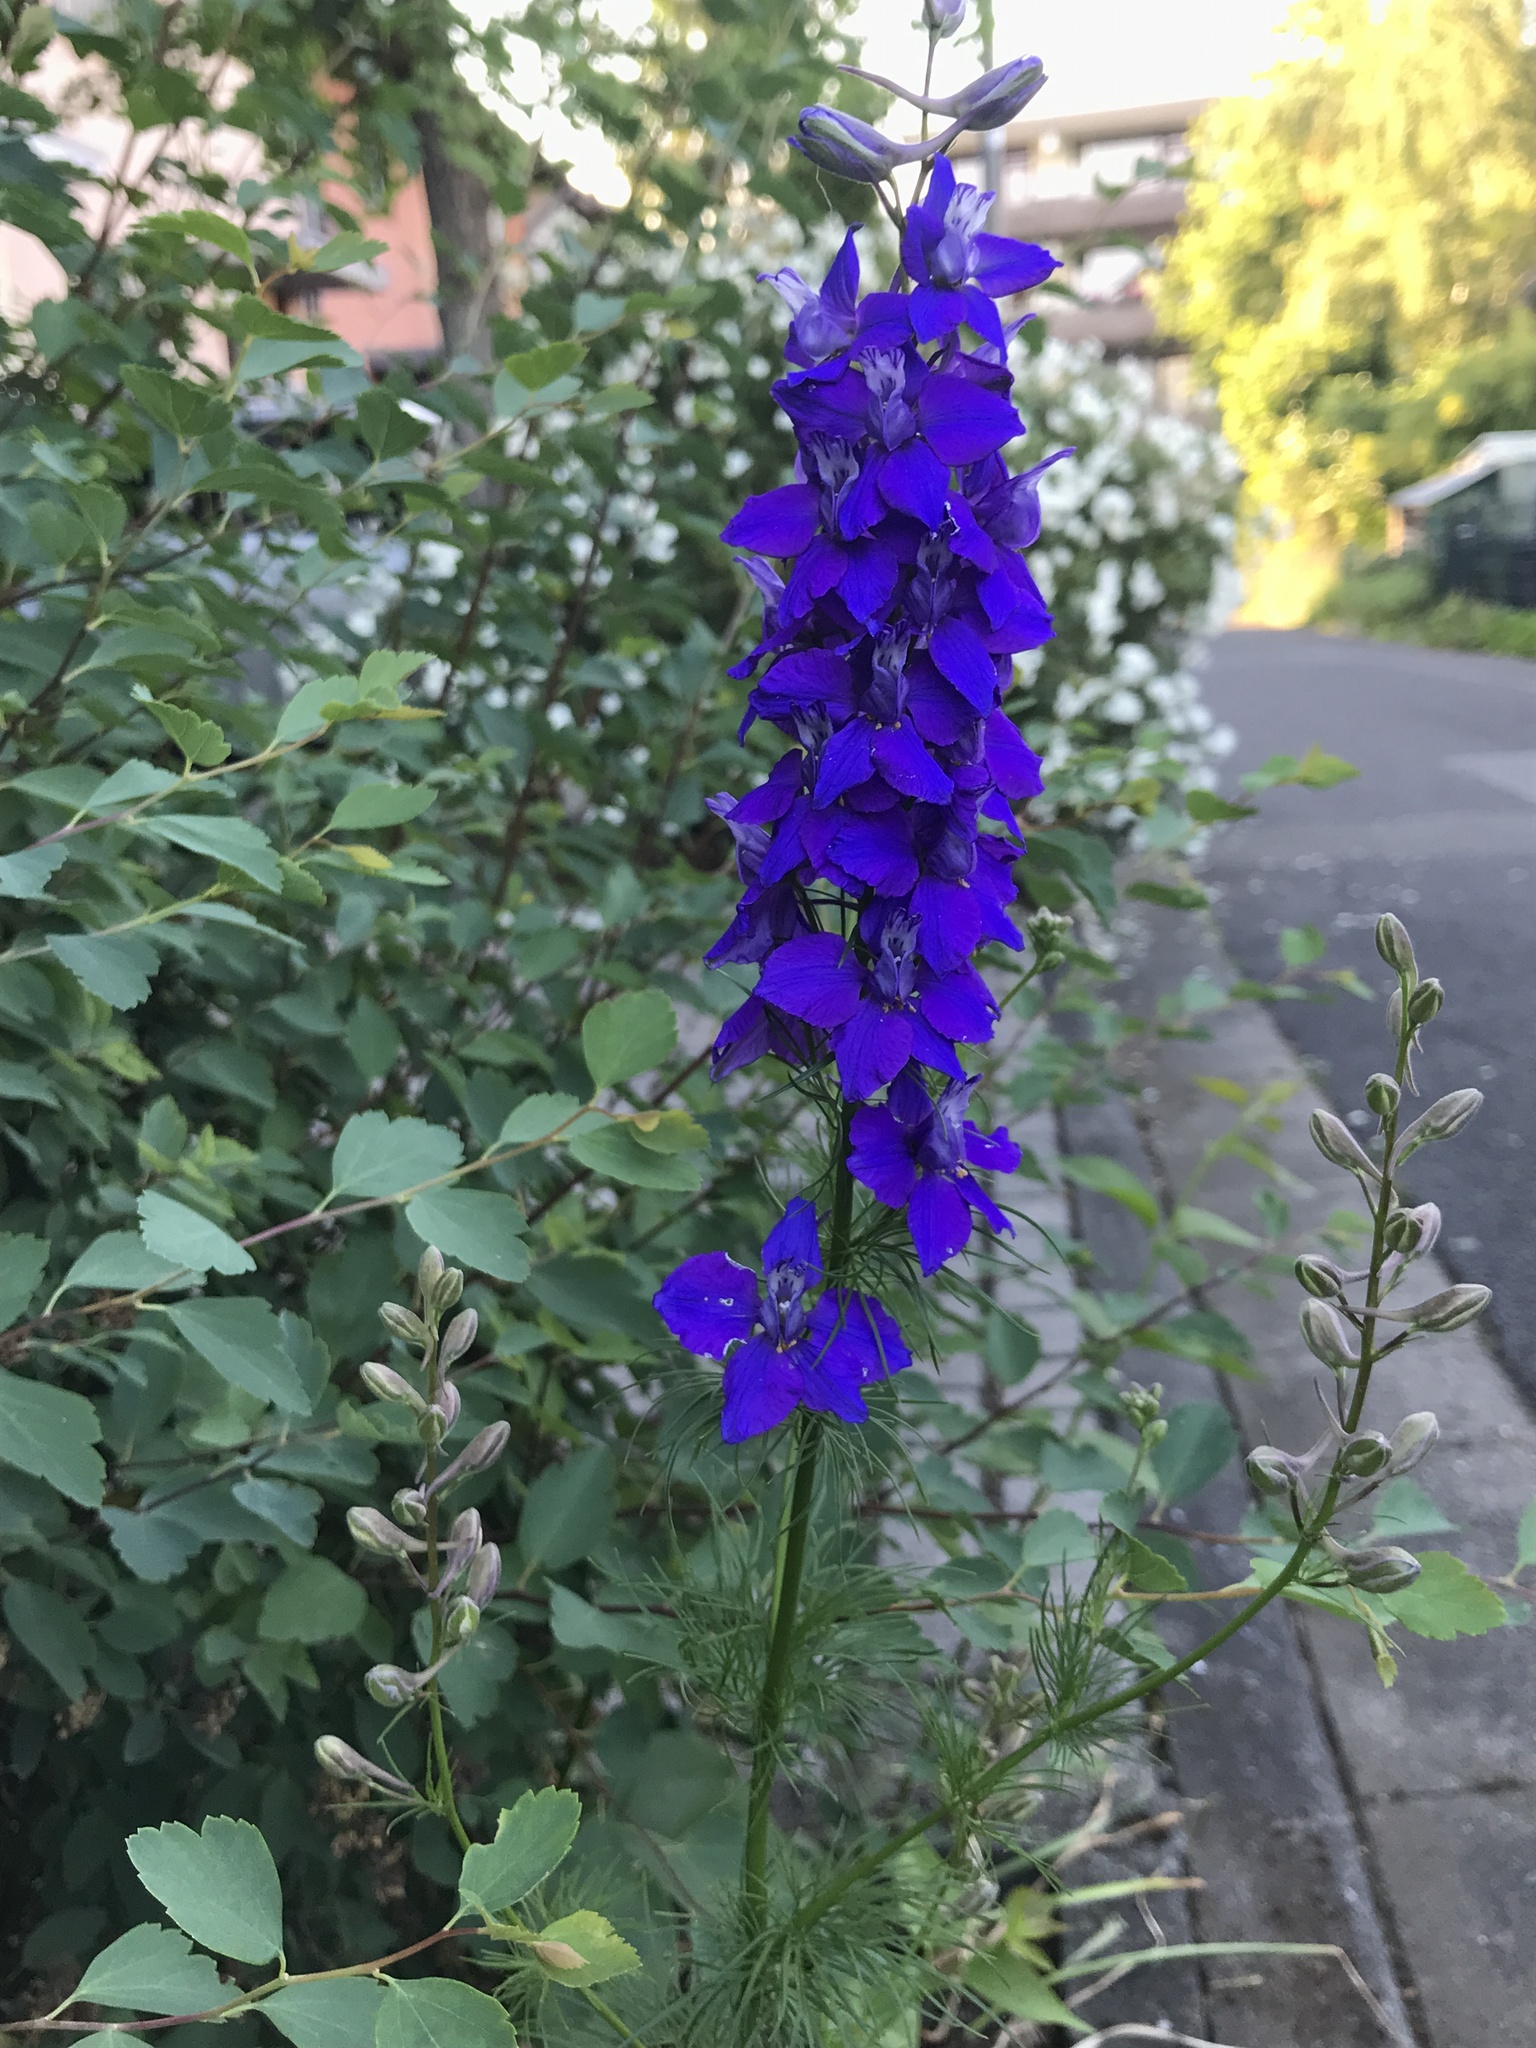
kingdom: Plantae
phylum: Tracheophyta
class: Magnoliopsida
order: Ranunculales
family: Ranunculaceae
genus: Delphinium
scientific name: Delphinium ajacis
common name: Doubtful knight's-spur
